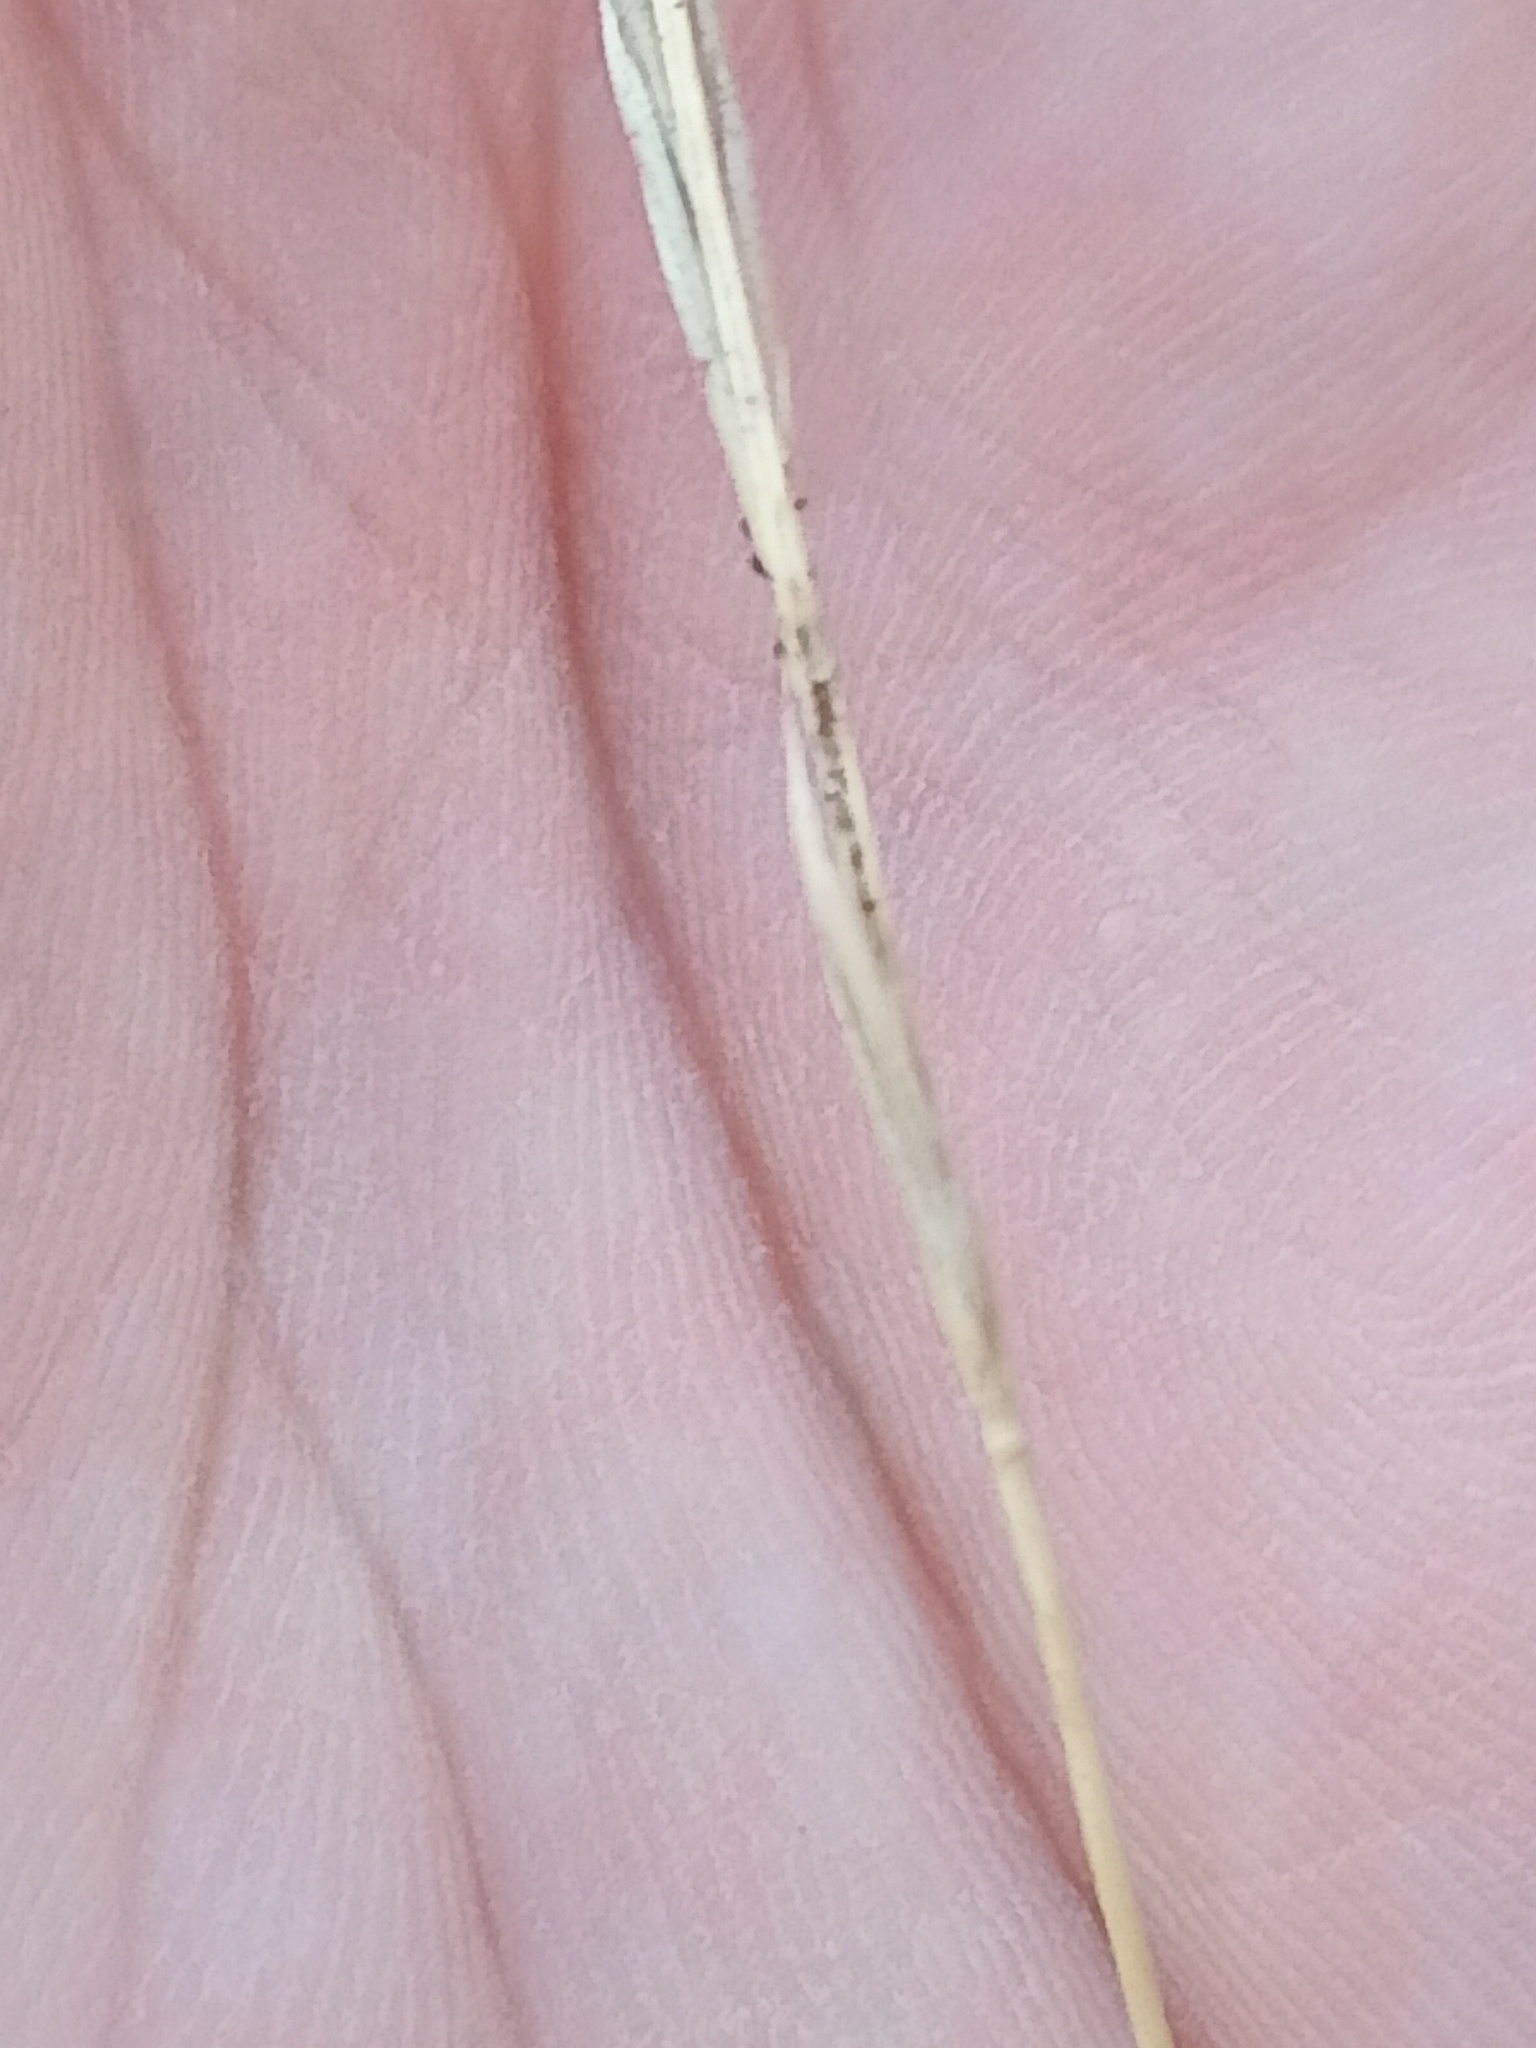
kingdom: Plantae
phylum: Tracheophyta
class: Liliopsida
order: Poales
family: Poaceae
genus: Brachypodium
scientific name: Brachypodium sylvaticum
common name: False-brome
